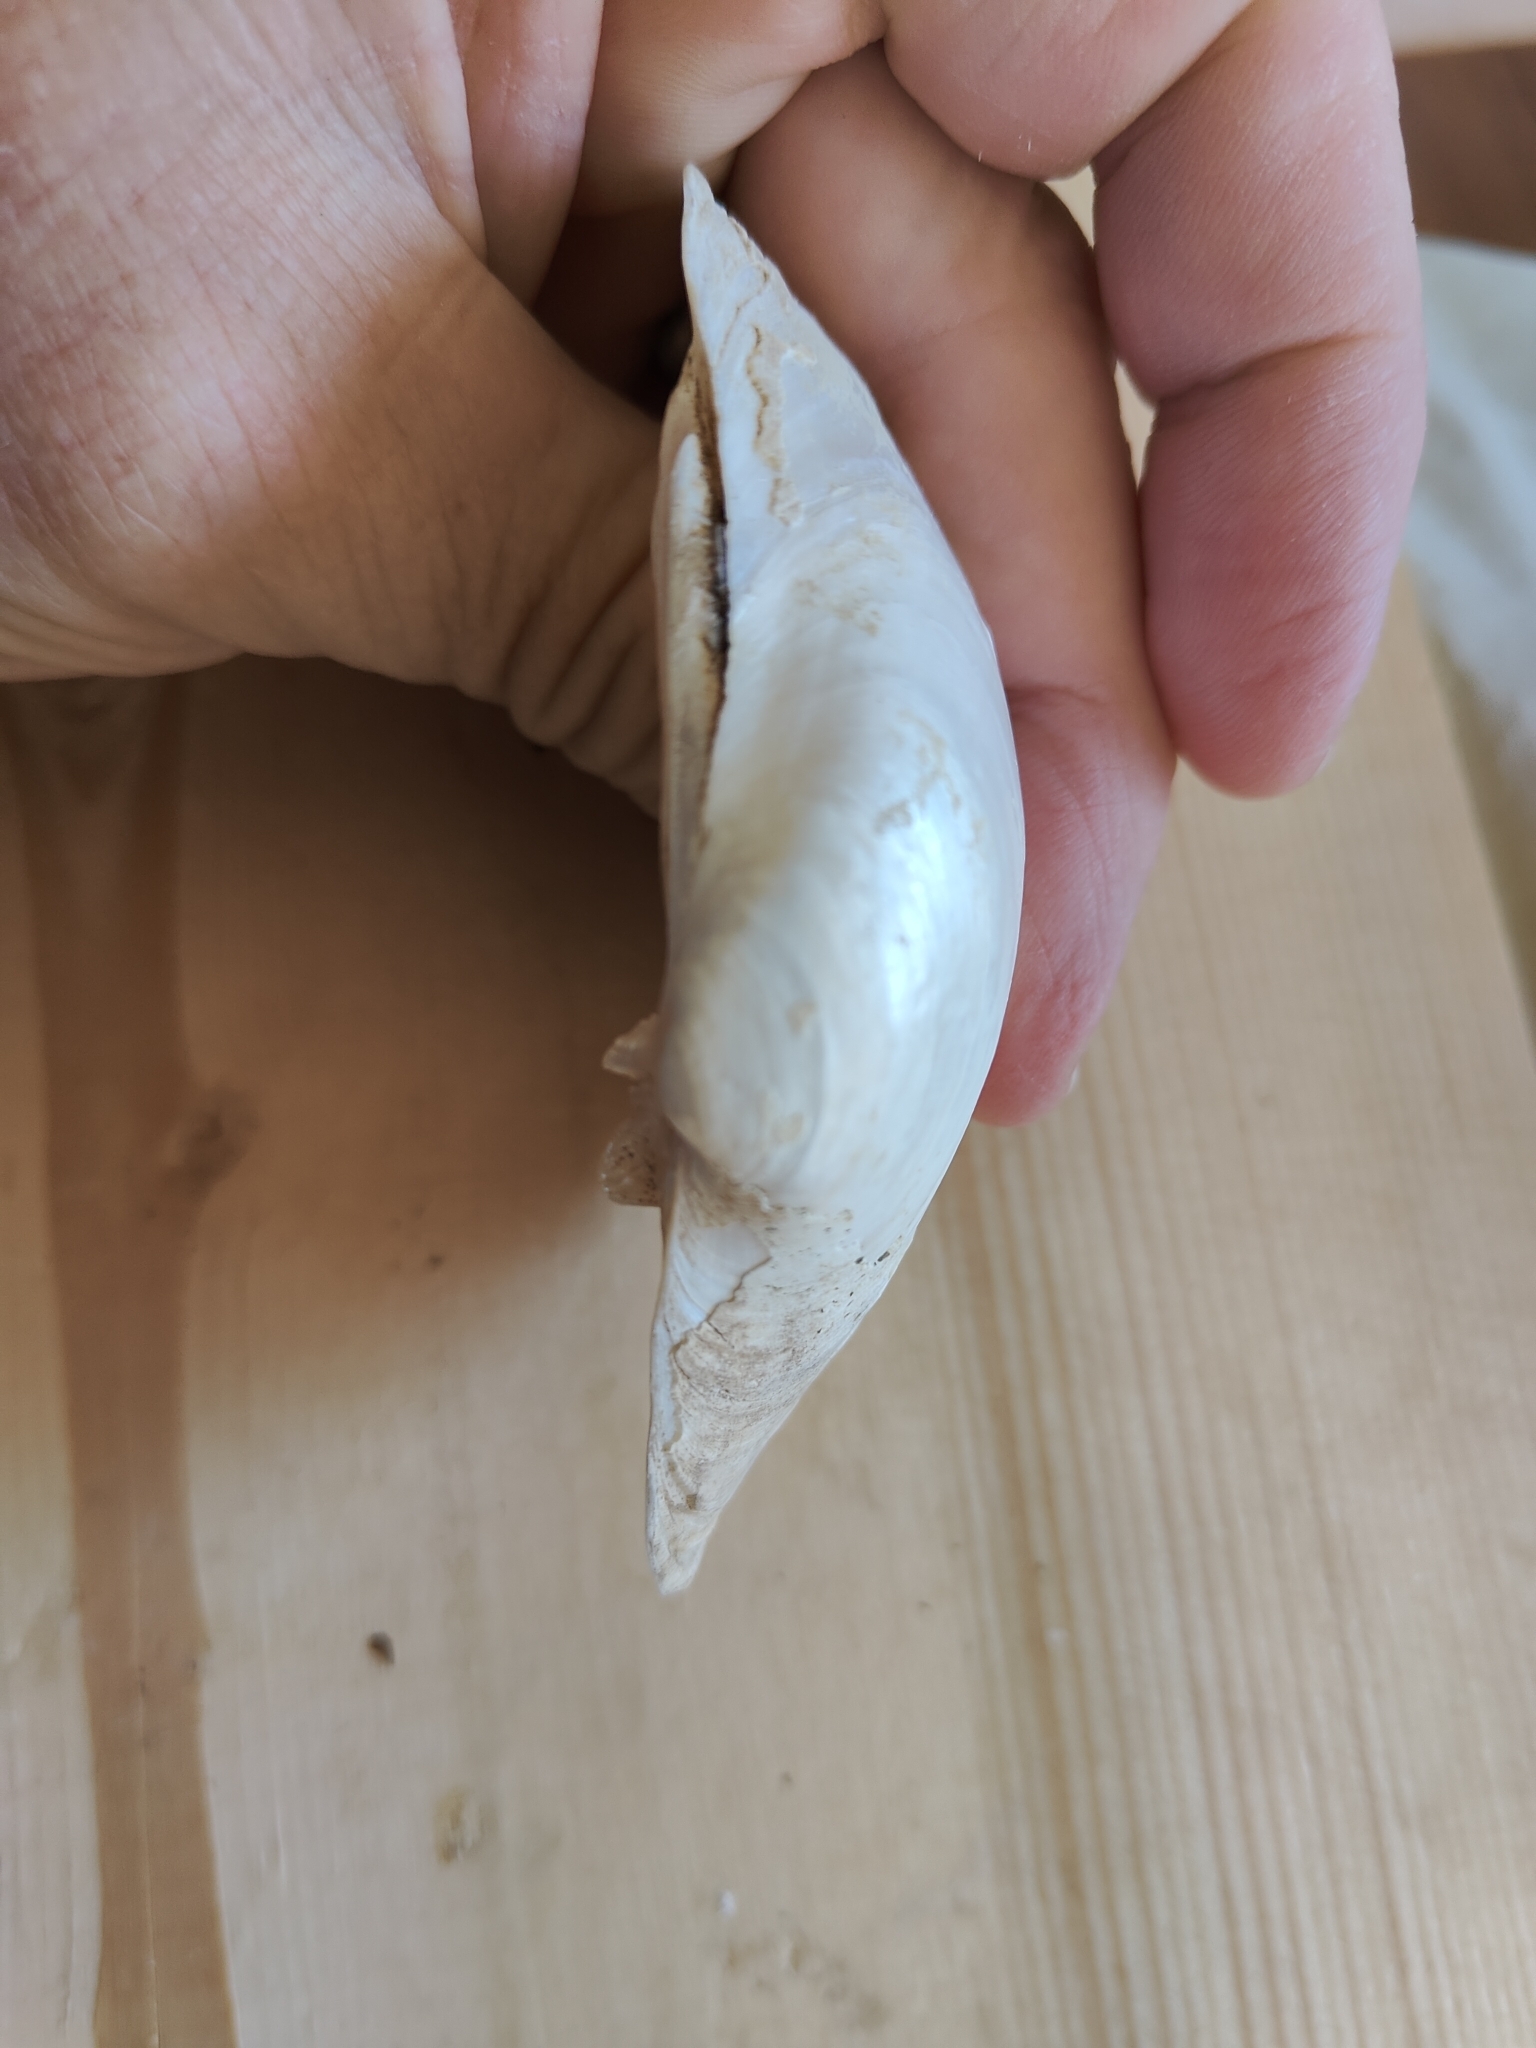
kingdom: Animalia
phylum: Mollusca
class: Bivalvia
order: Unionida
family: Unionidae
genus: Lampsilis
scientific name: Lampsilis cardium
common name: Plain pocketbook
